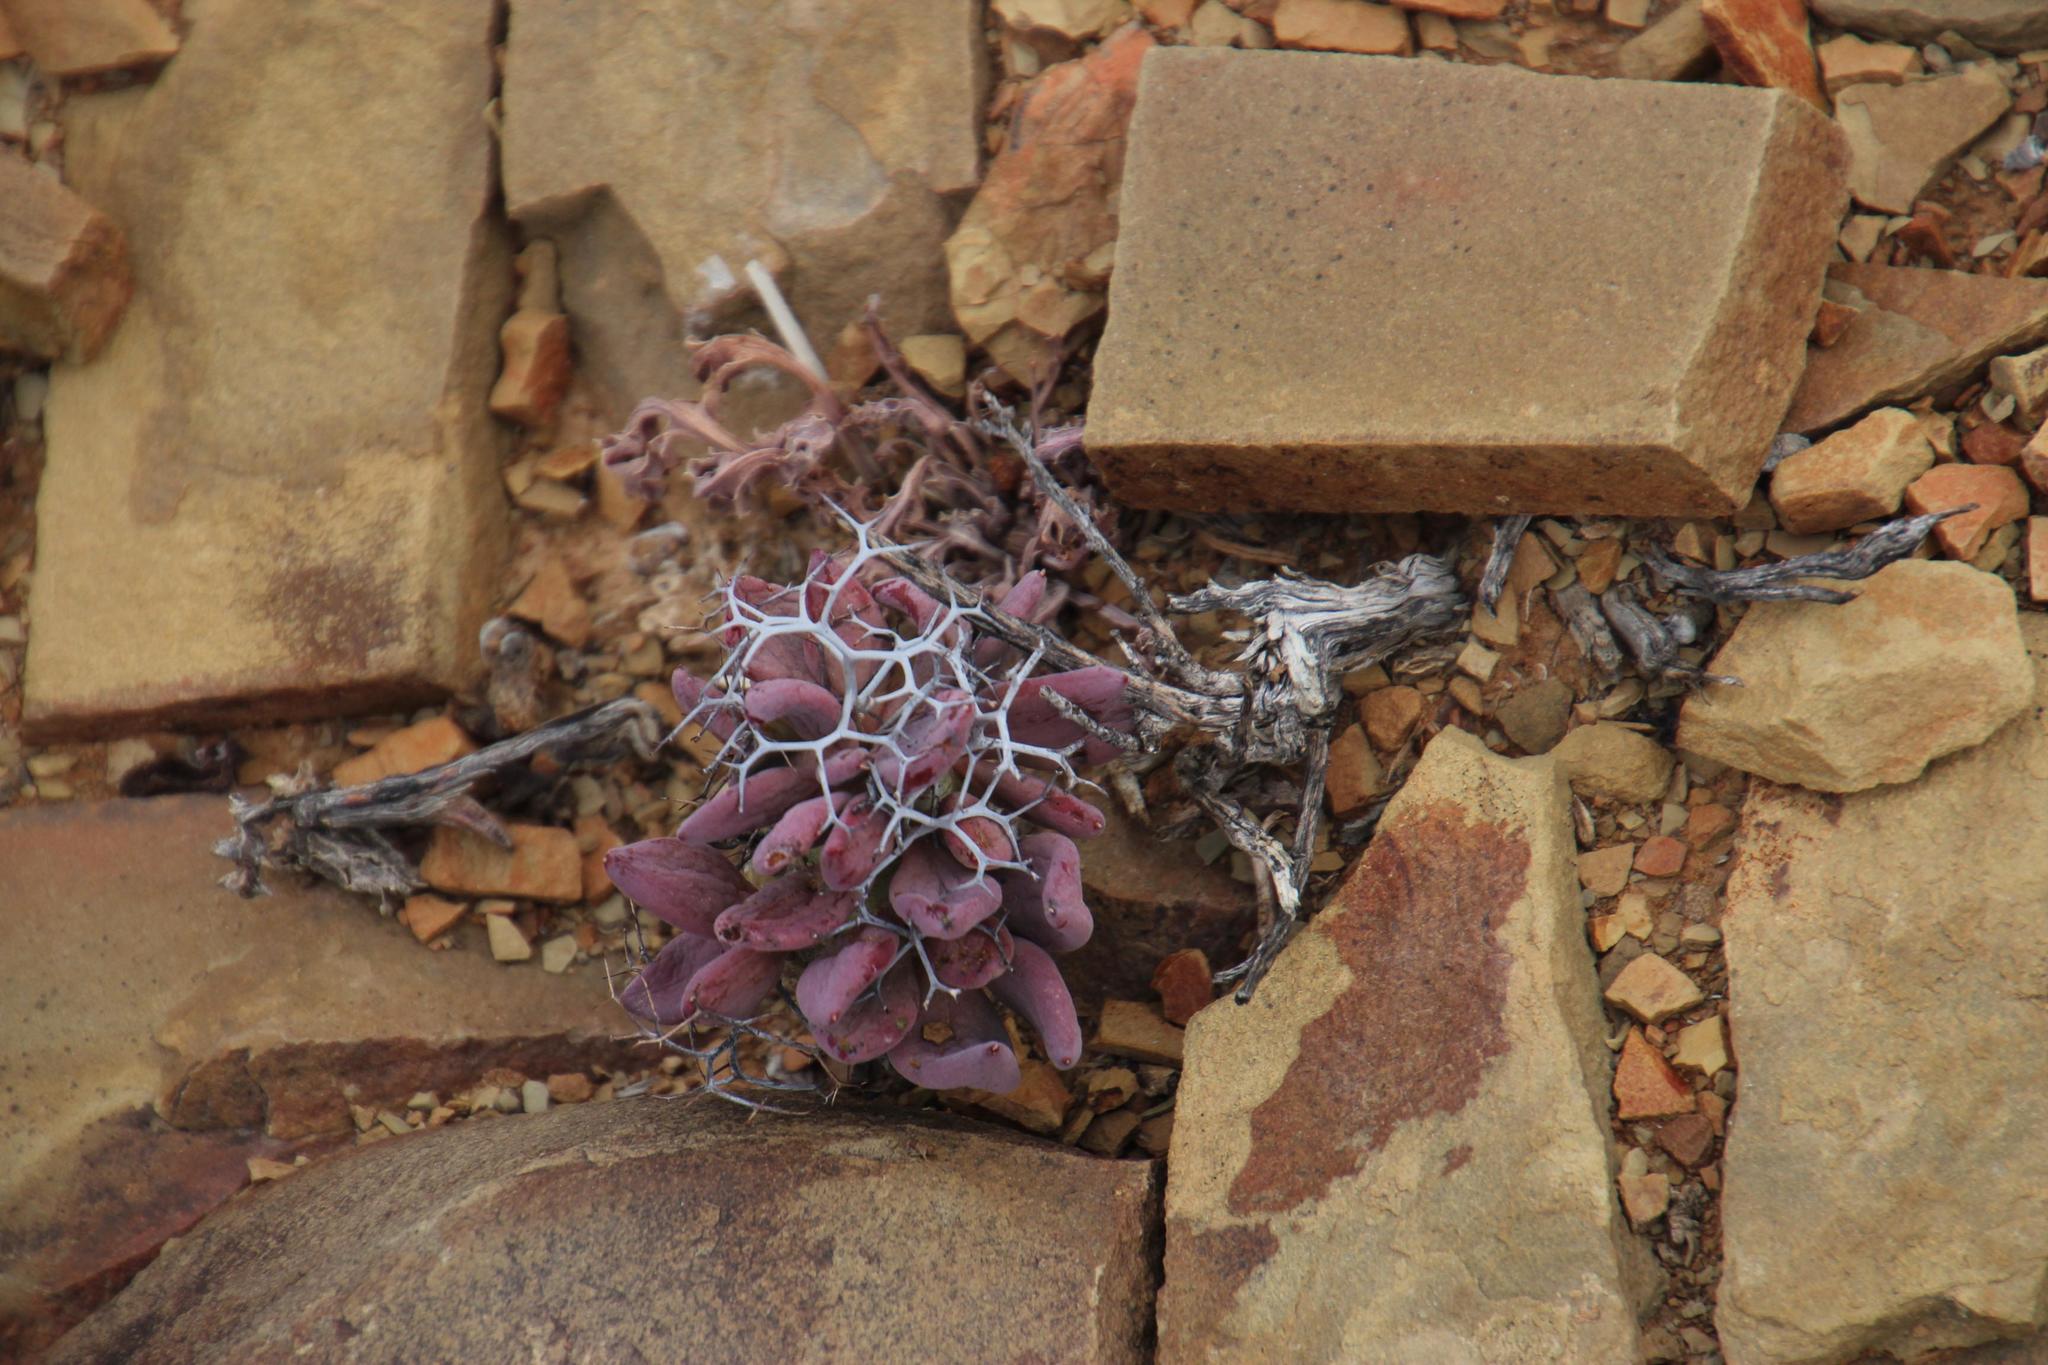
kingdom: Plantae
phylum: Tracheophyta
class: Magnoliopsida
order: Saxifragales
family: Crassulaceae
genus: Tylecodon
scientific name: Tylecodon reticulatus
